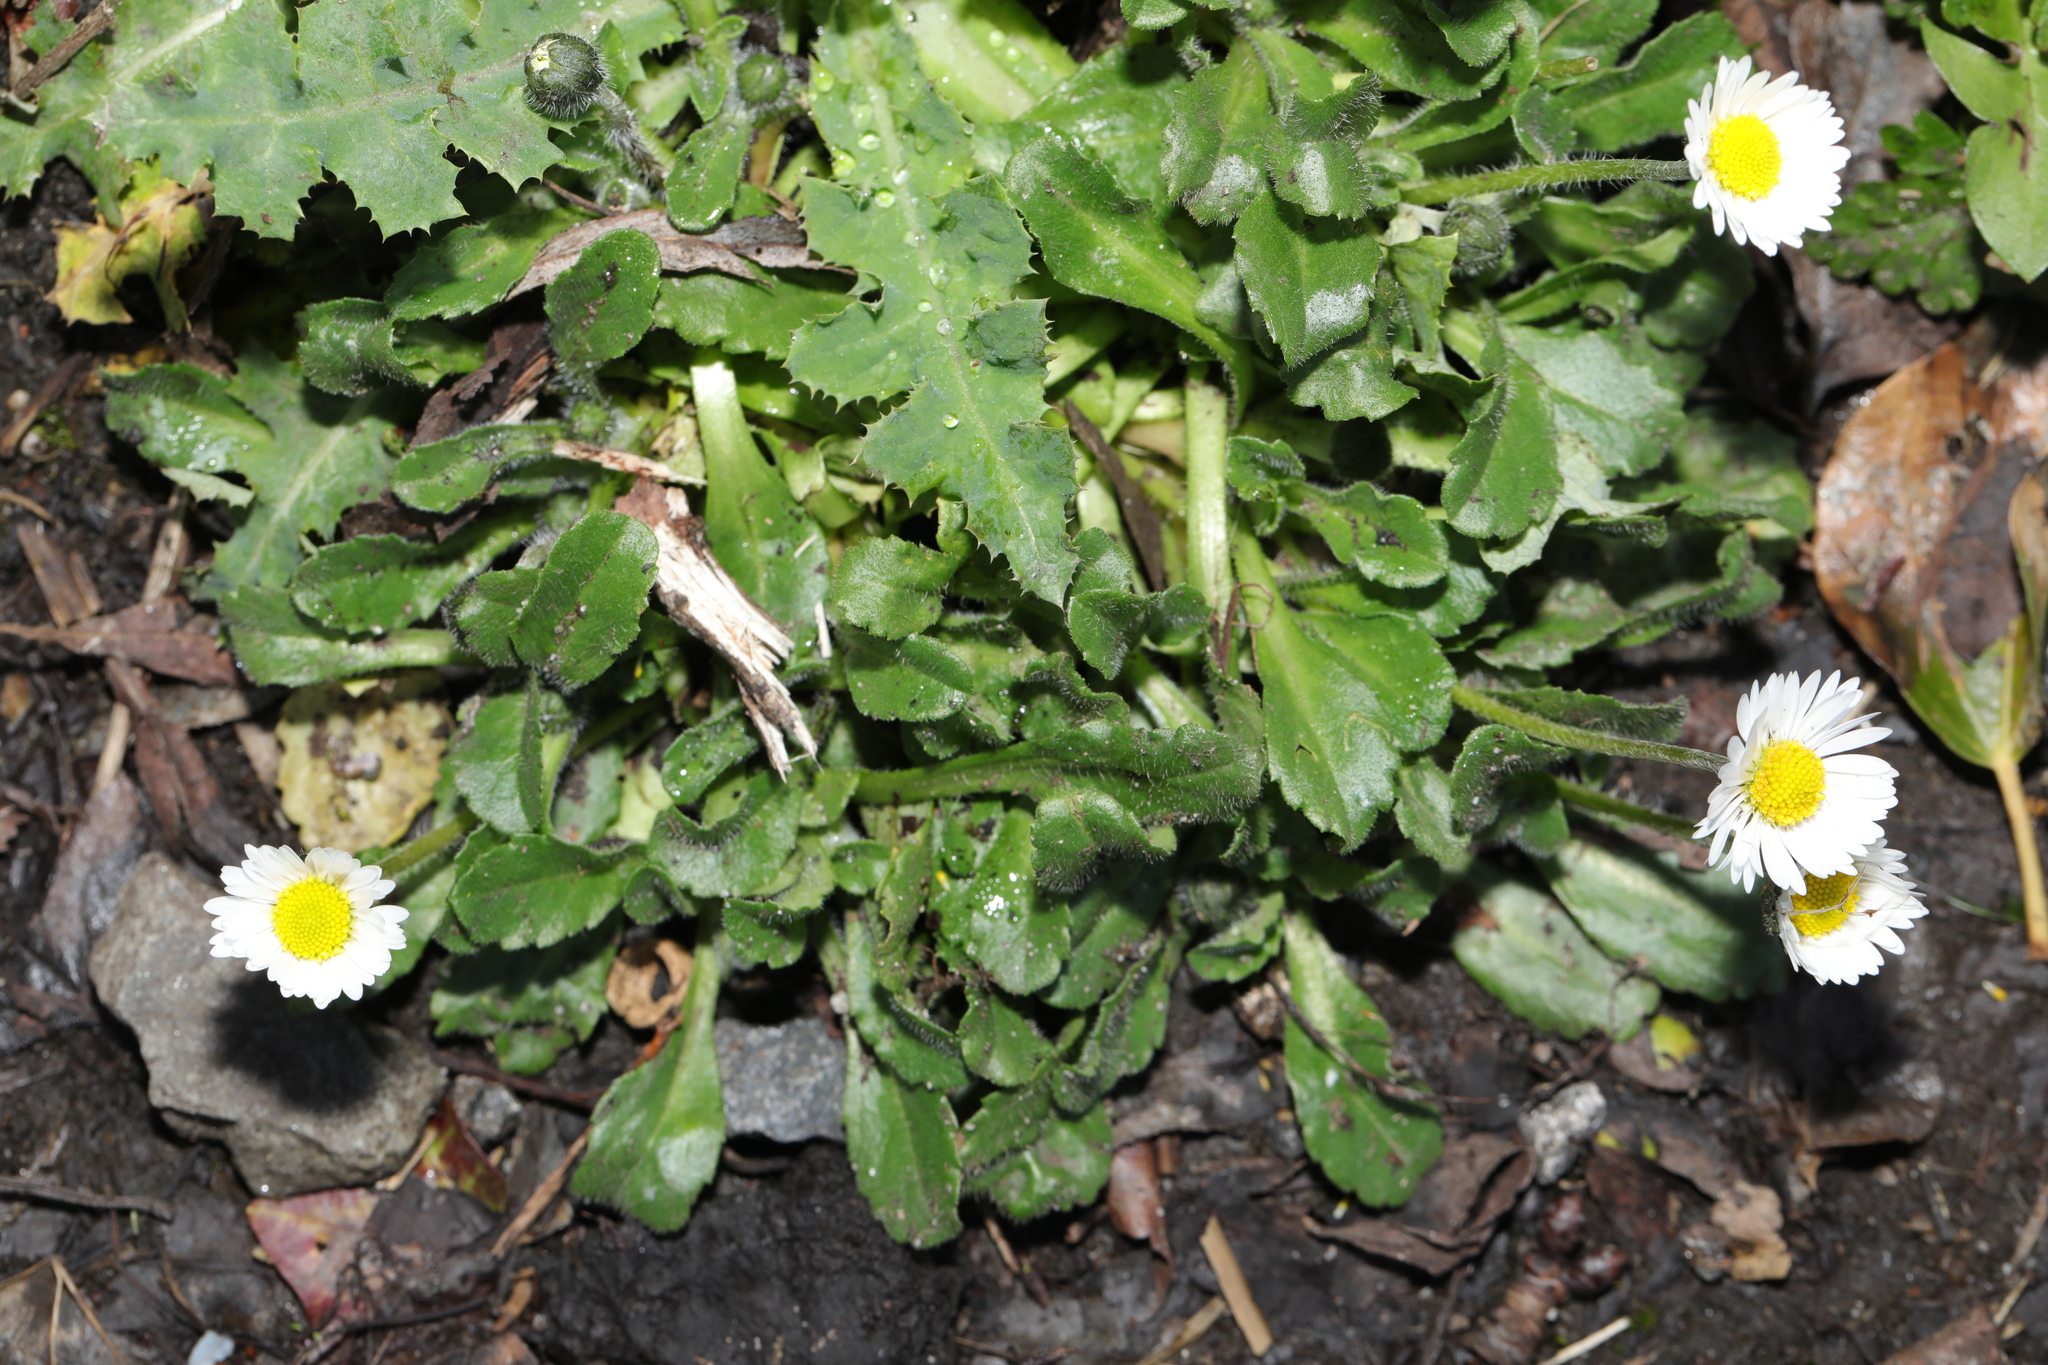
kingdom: Plantae
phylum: Tracheophyta
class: Magnoliopsida
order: Asterales
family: Asteraceae
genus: Bellis
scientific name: Bellis perennis
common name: Lawndaisy
